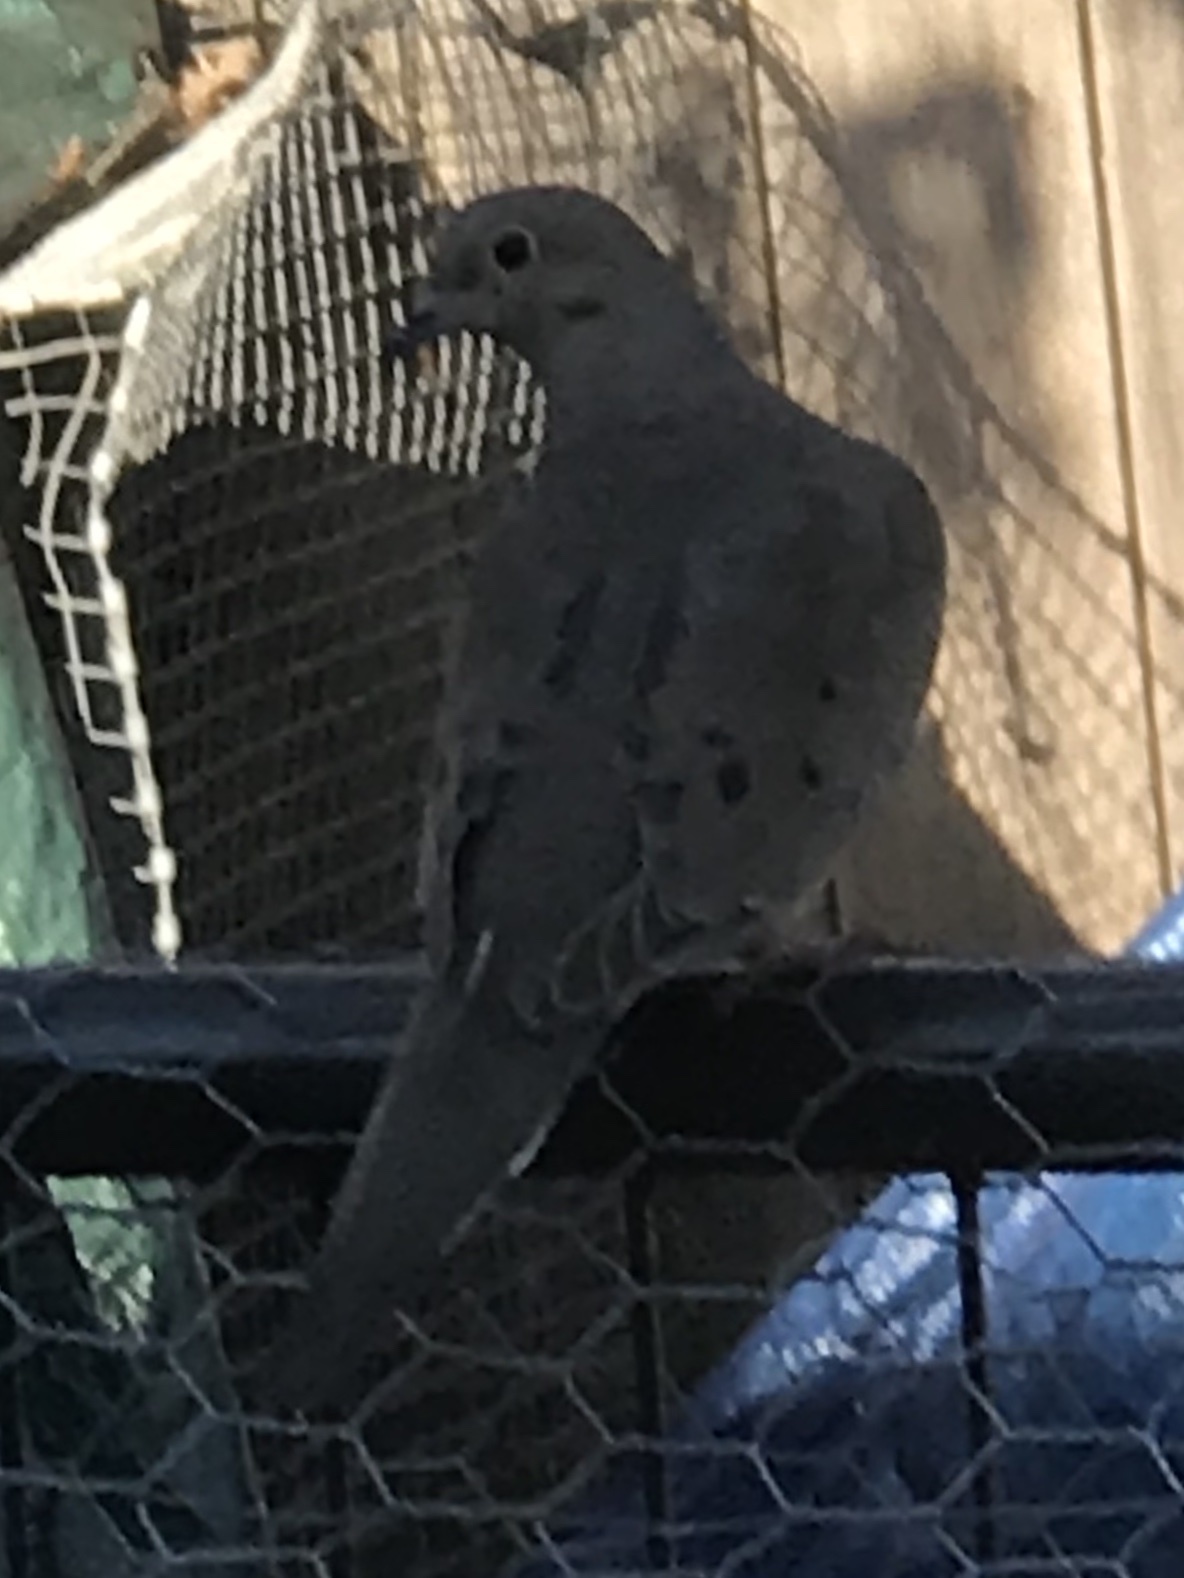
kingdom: Animalia
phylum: Chordata
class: Aves
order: Columbiformes
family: Columbidae
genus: Zenaida
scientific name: Zenaida macroura
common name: Mourning dove
